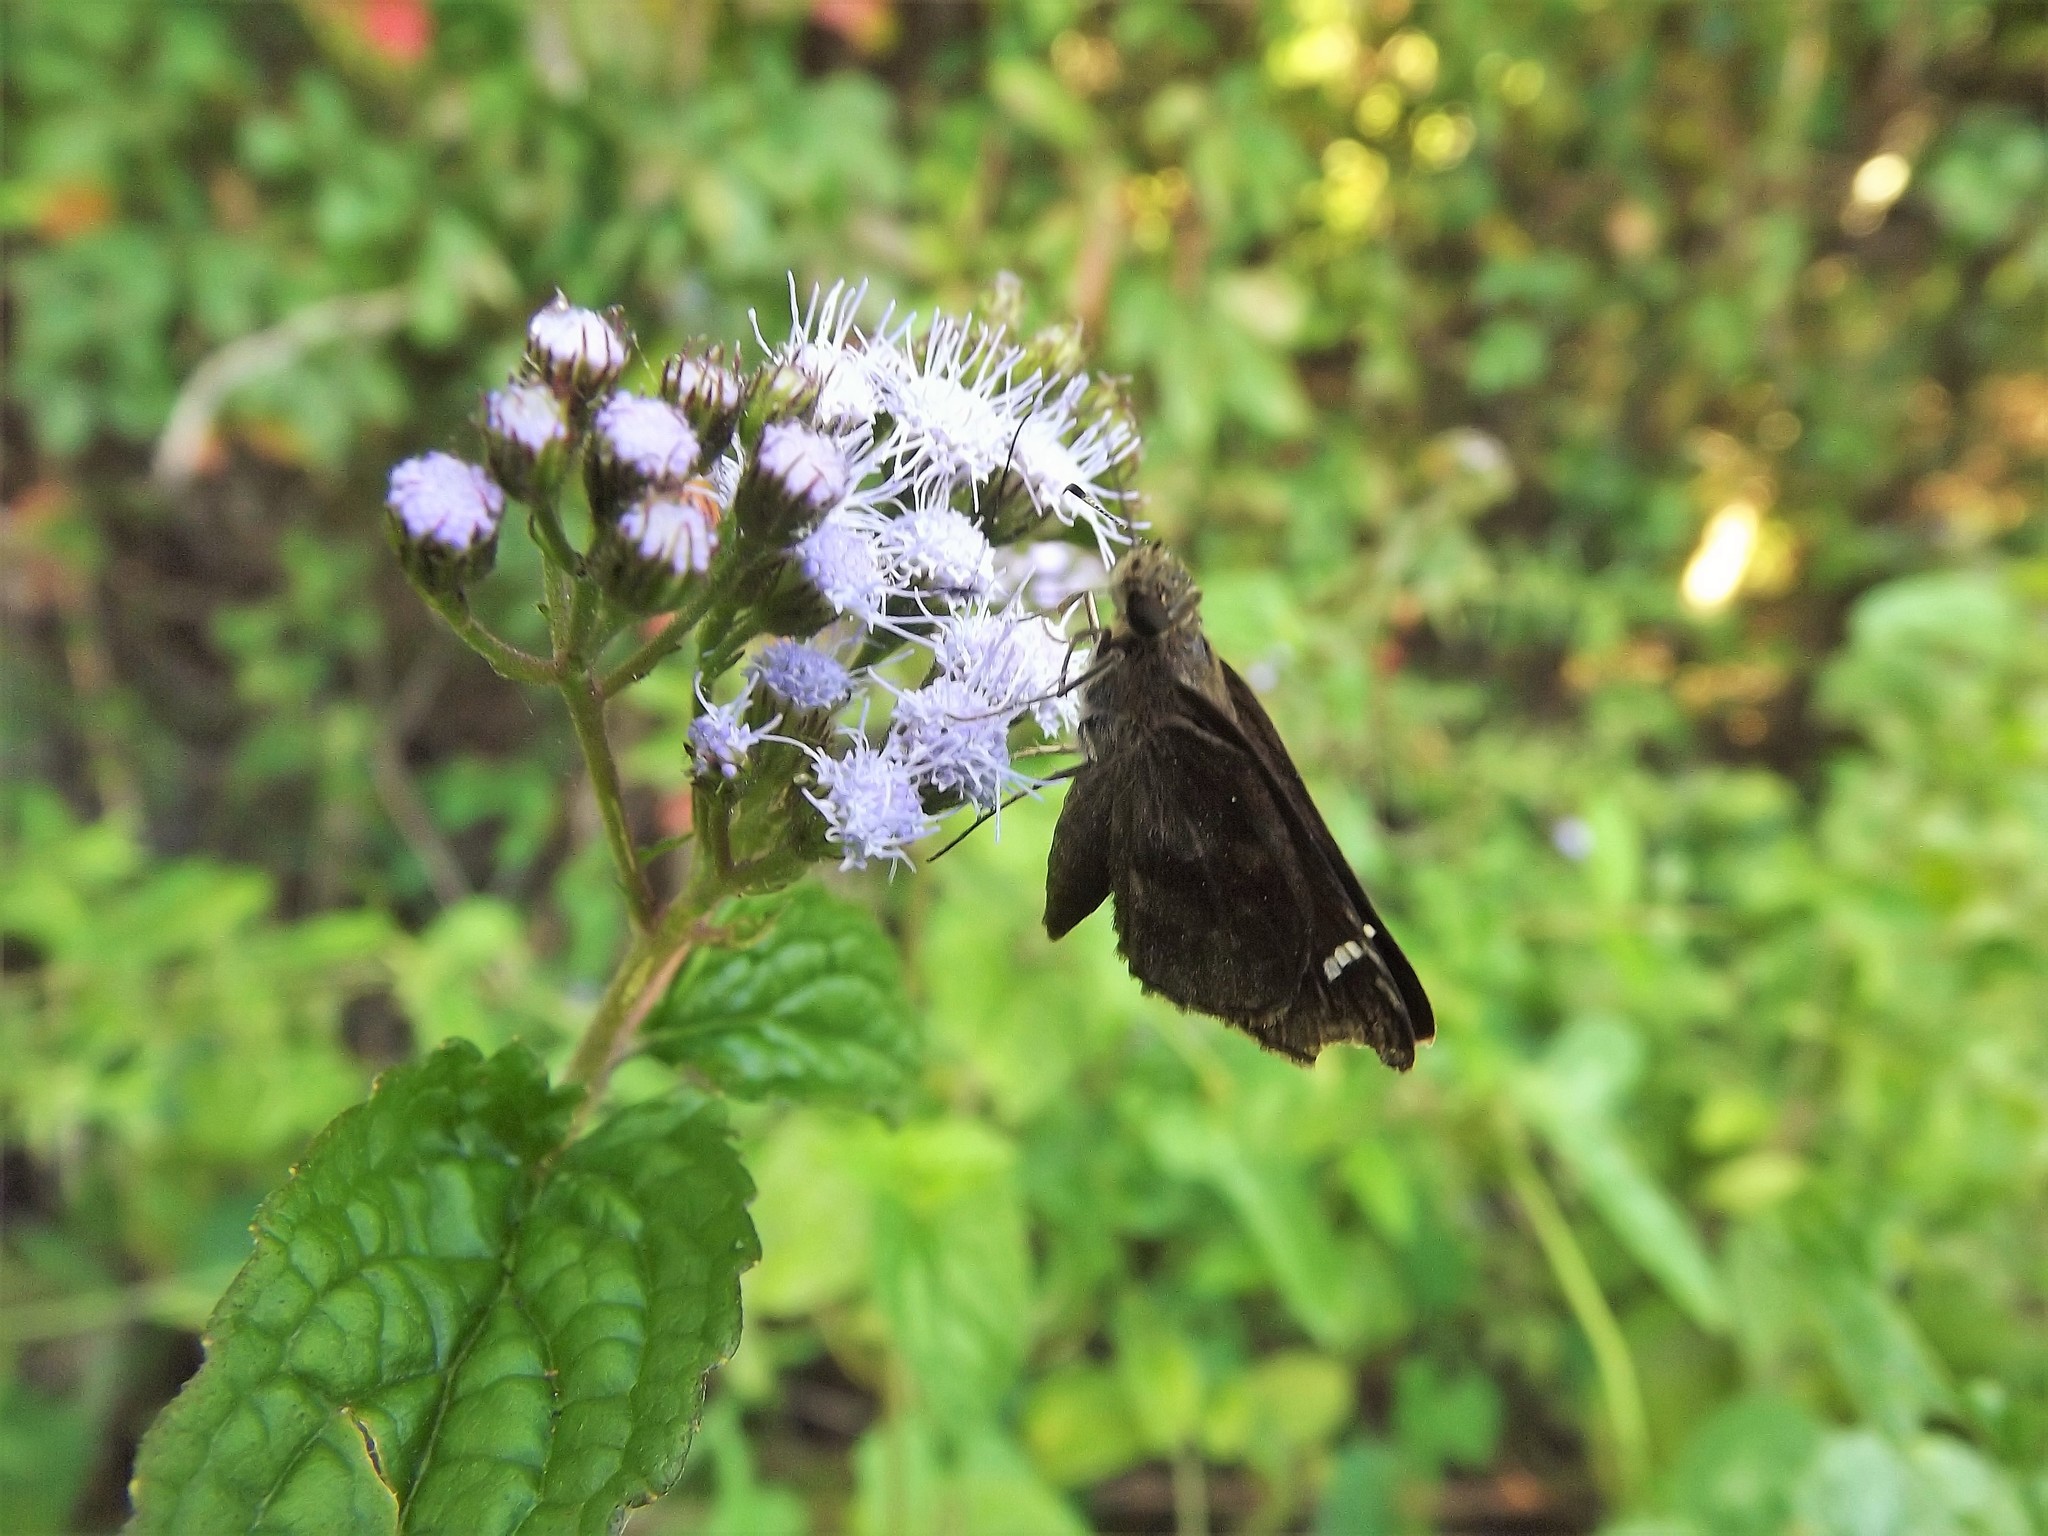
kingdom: Animalia
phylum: Arthropoda
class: Insecta
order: Lepidoptera
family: Hesperiidae
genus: Lerema
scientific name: Lerema accius
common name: Clouded skipper
